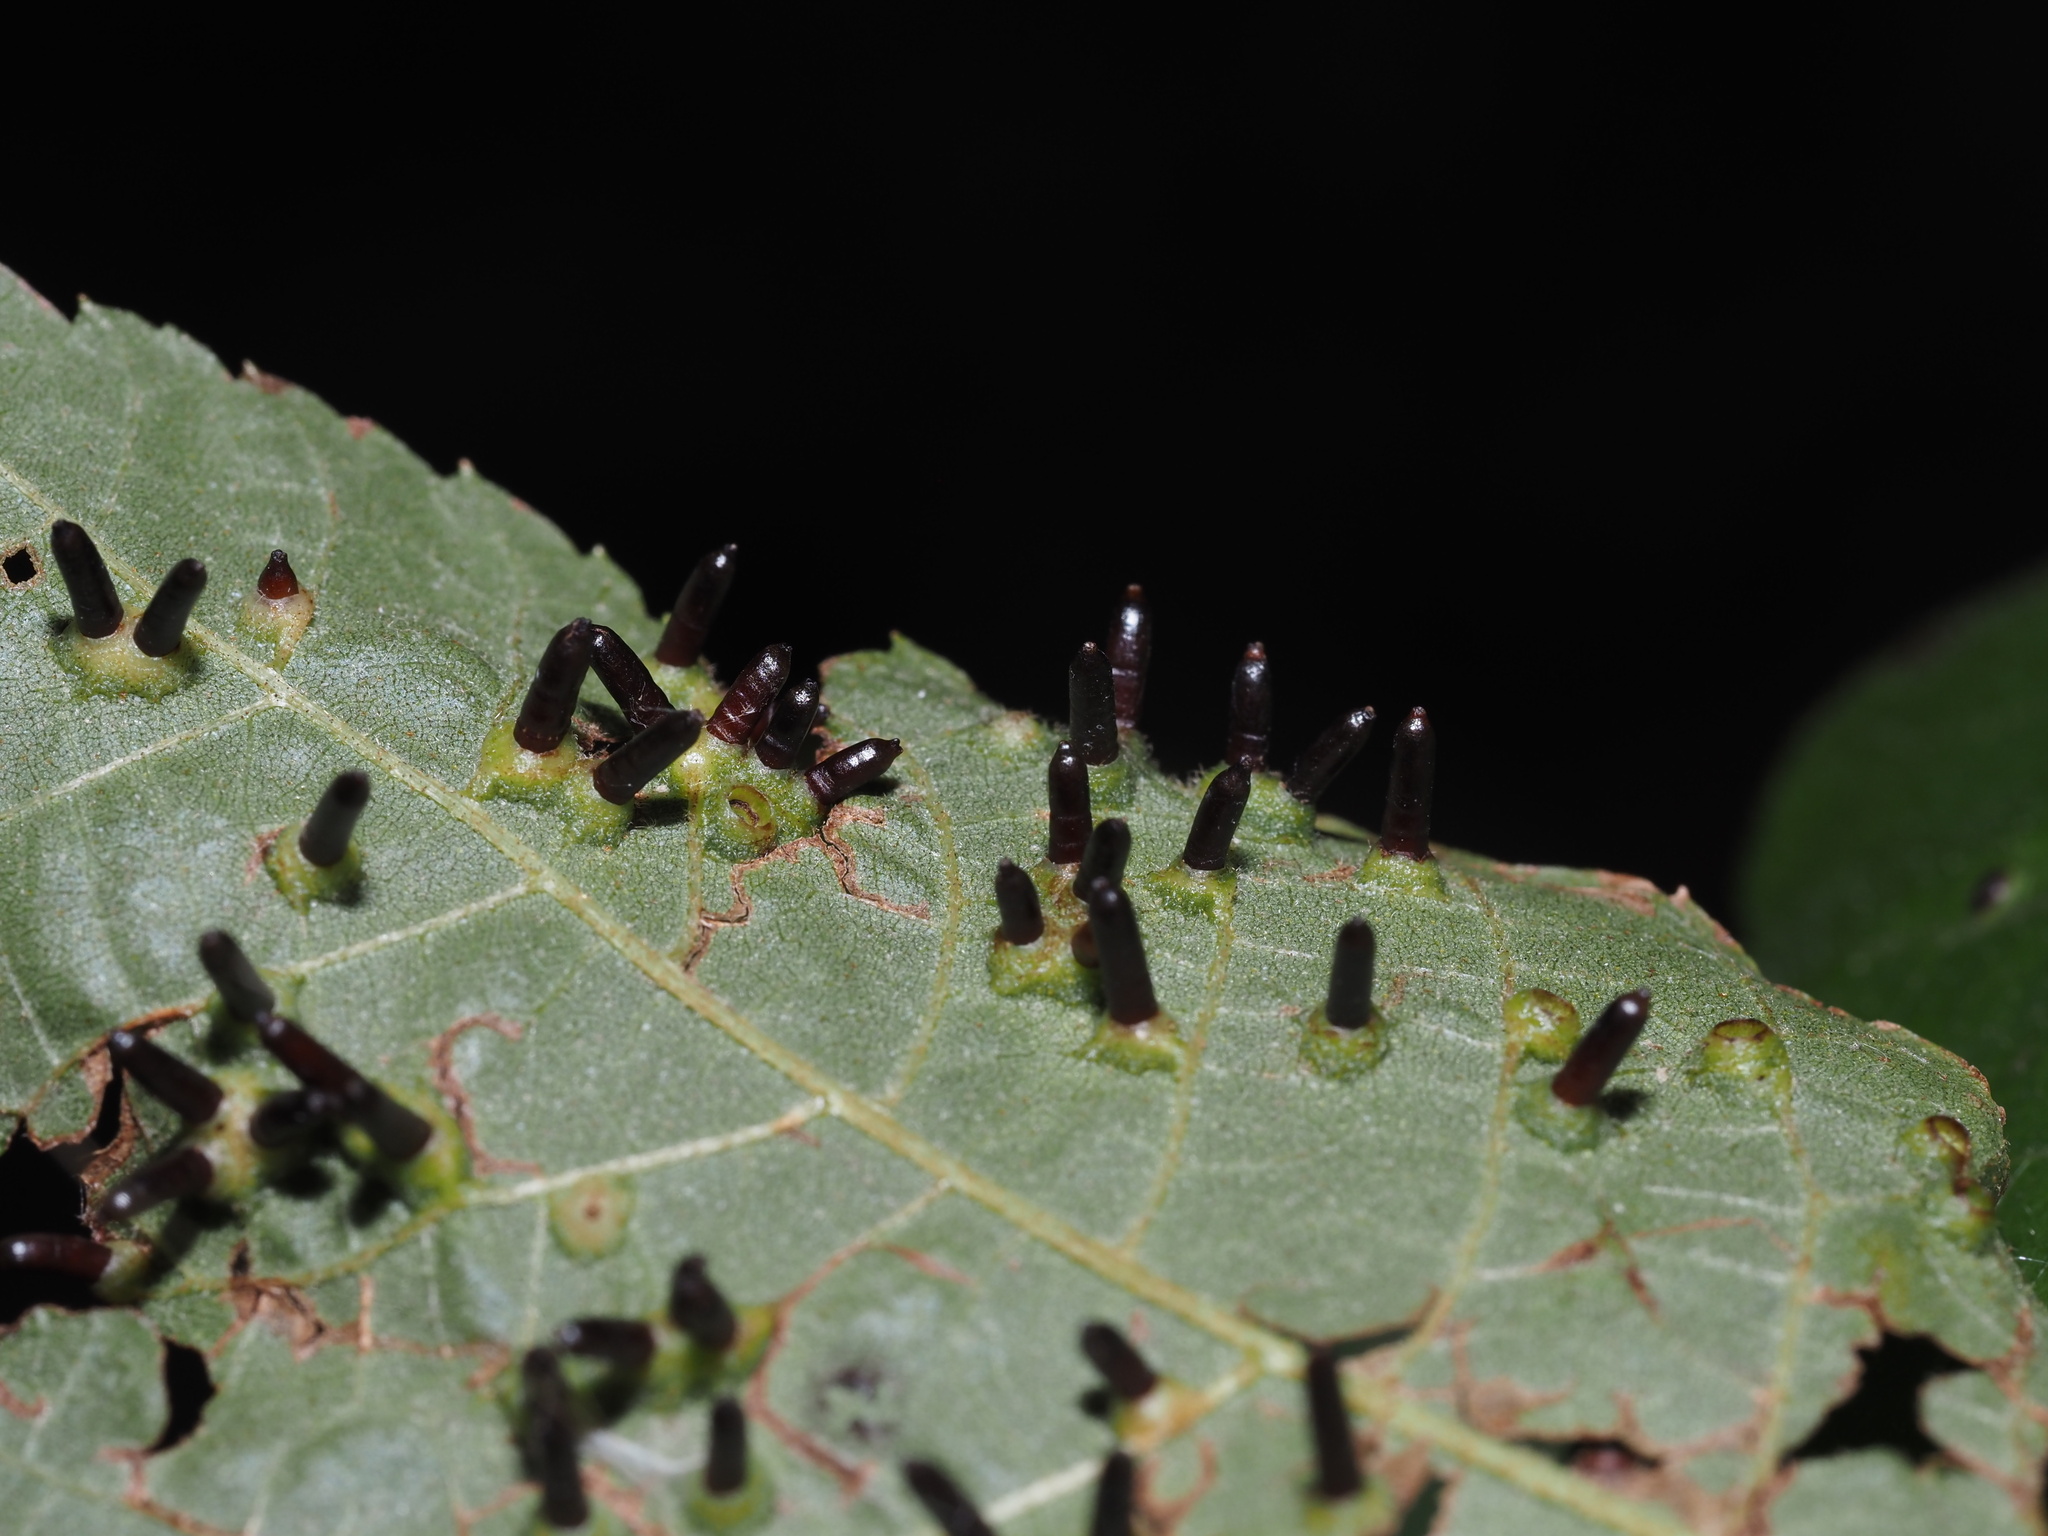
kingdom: Animalia
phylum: Arthropoda
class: Insecta
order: Diptera
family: Cecidomyiidae
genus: Caryomyia
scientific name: Caryomyia tubicola
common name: Hickory bullet gall midge
